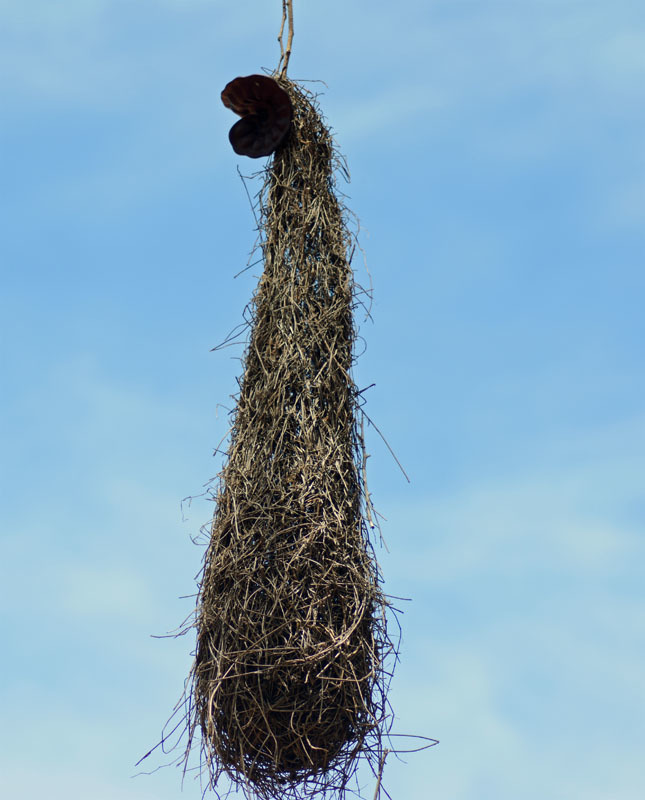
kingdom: Animalia
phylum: Chordata
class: Aves
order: Passeriformes
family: Icteridae
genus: Cacicus
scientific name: Cacicus melanicterus
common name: Yellow-winged cacique
